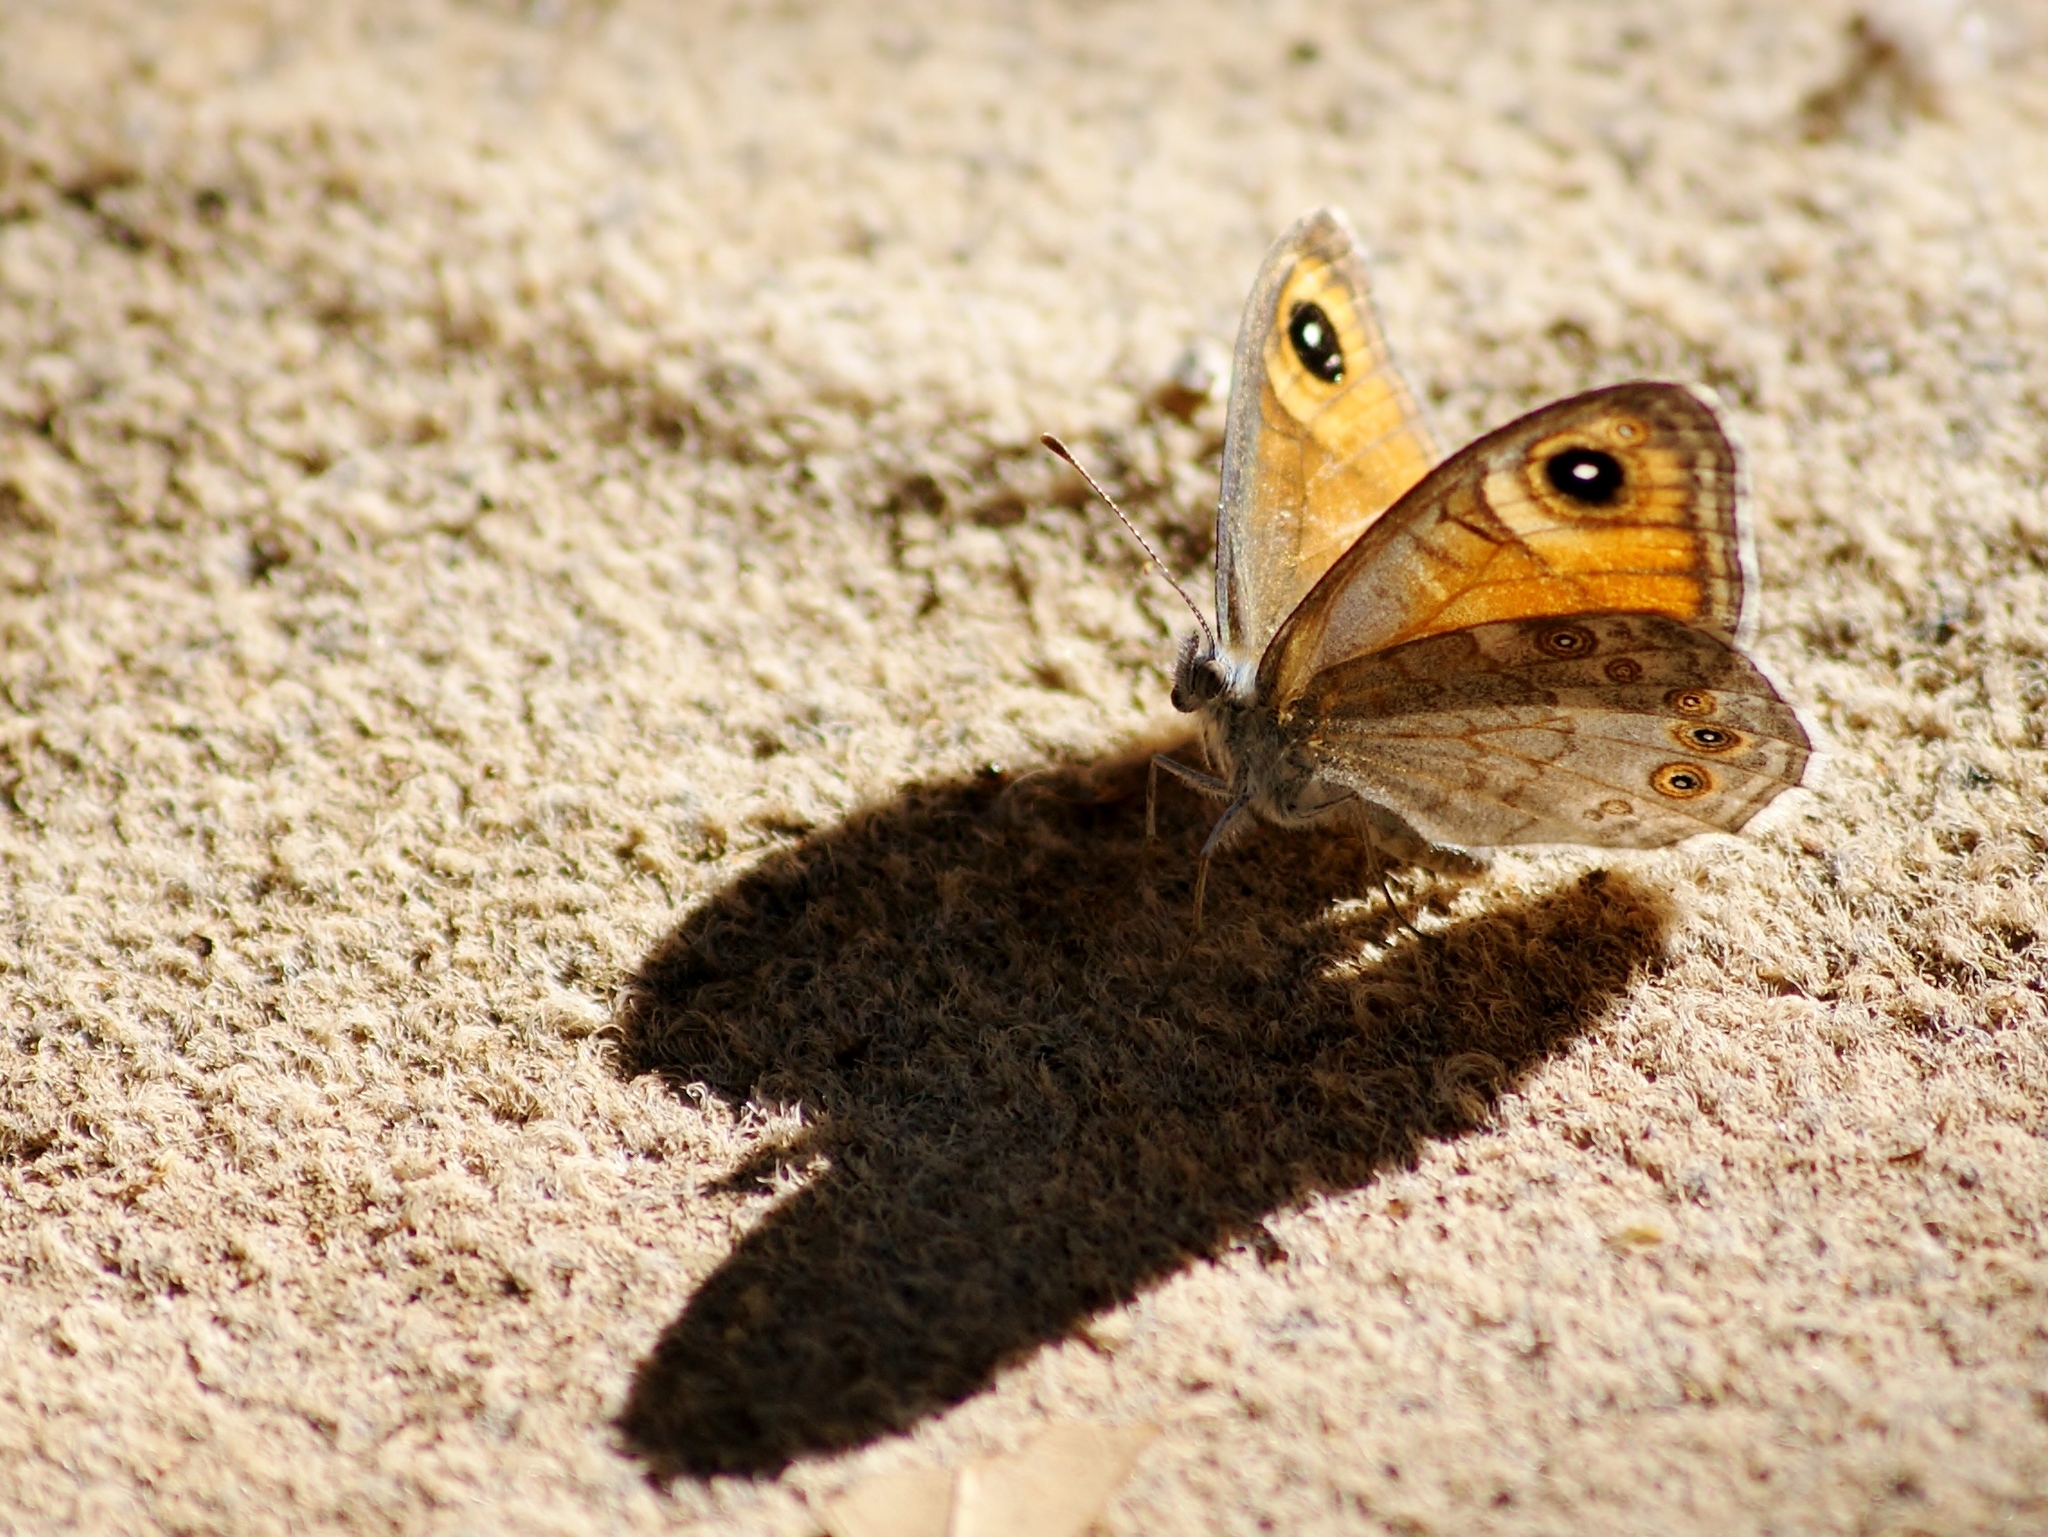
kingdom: Animalia
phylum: Arthropoda
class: Insecta
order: Lepidoptera
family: Nymphalidae
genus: Pararge
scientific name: Pararge Lasiommata maera
